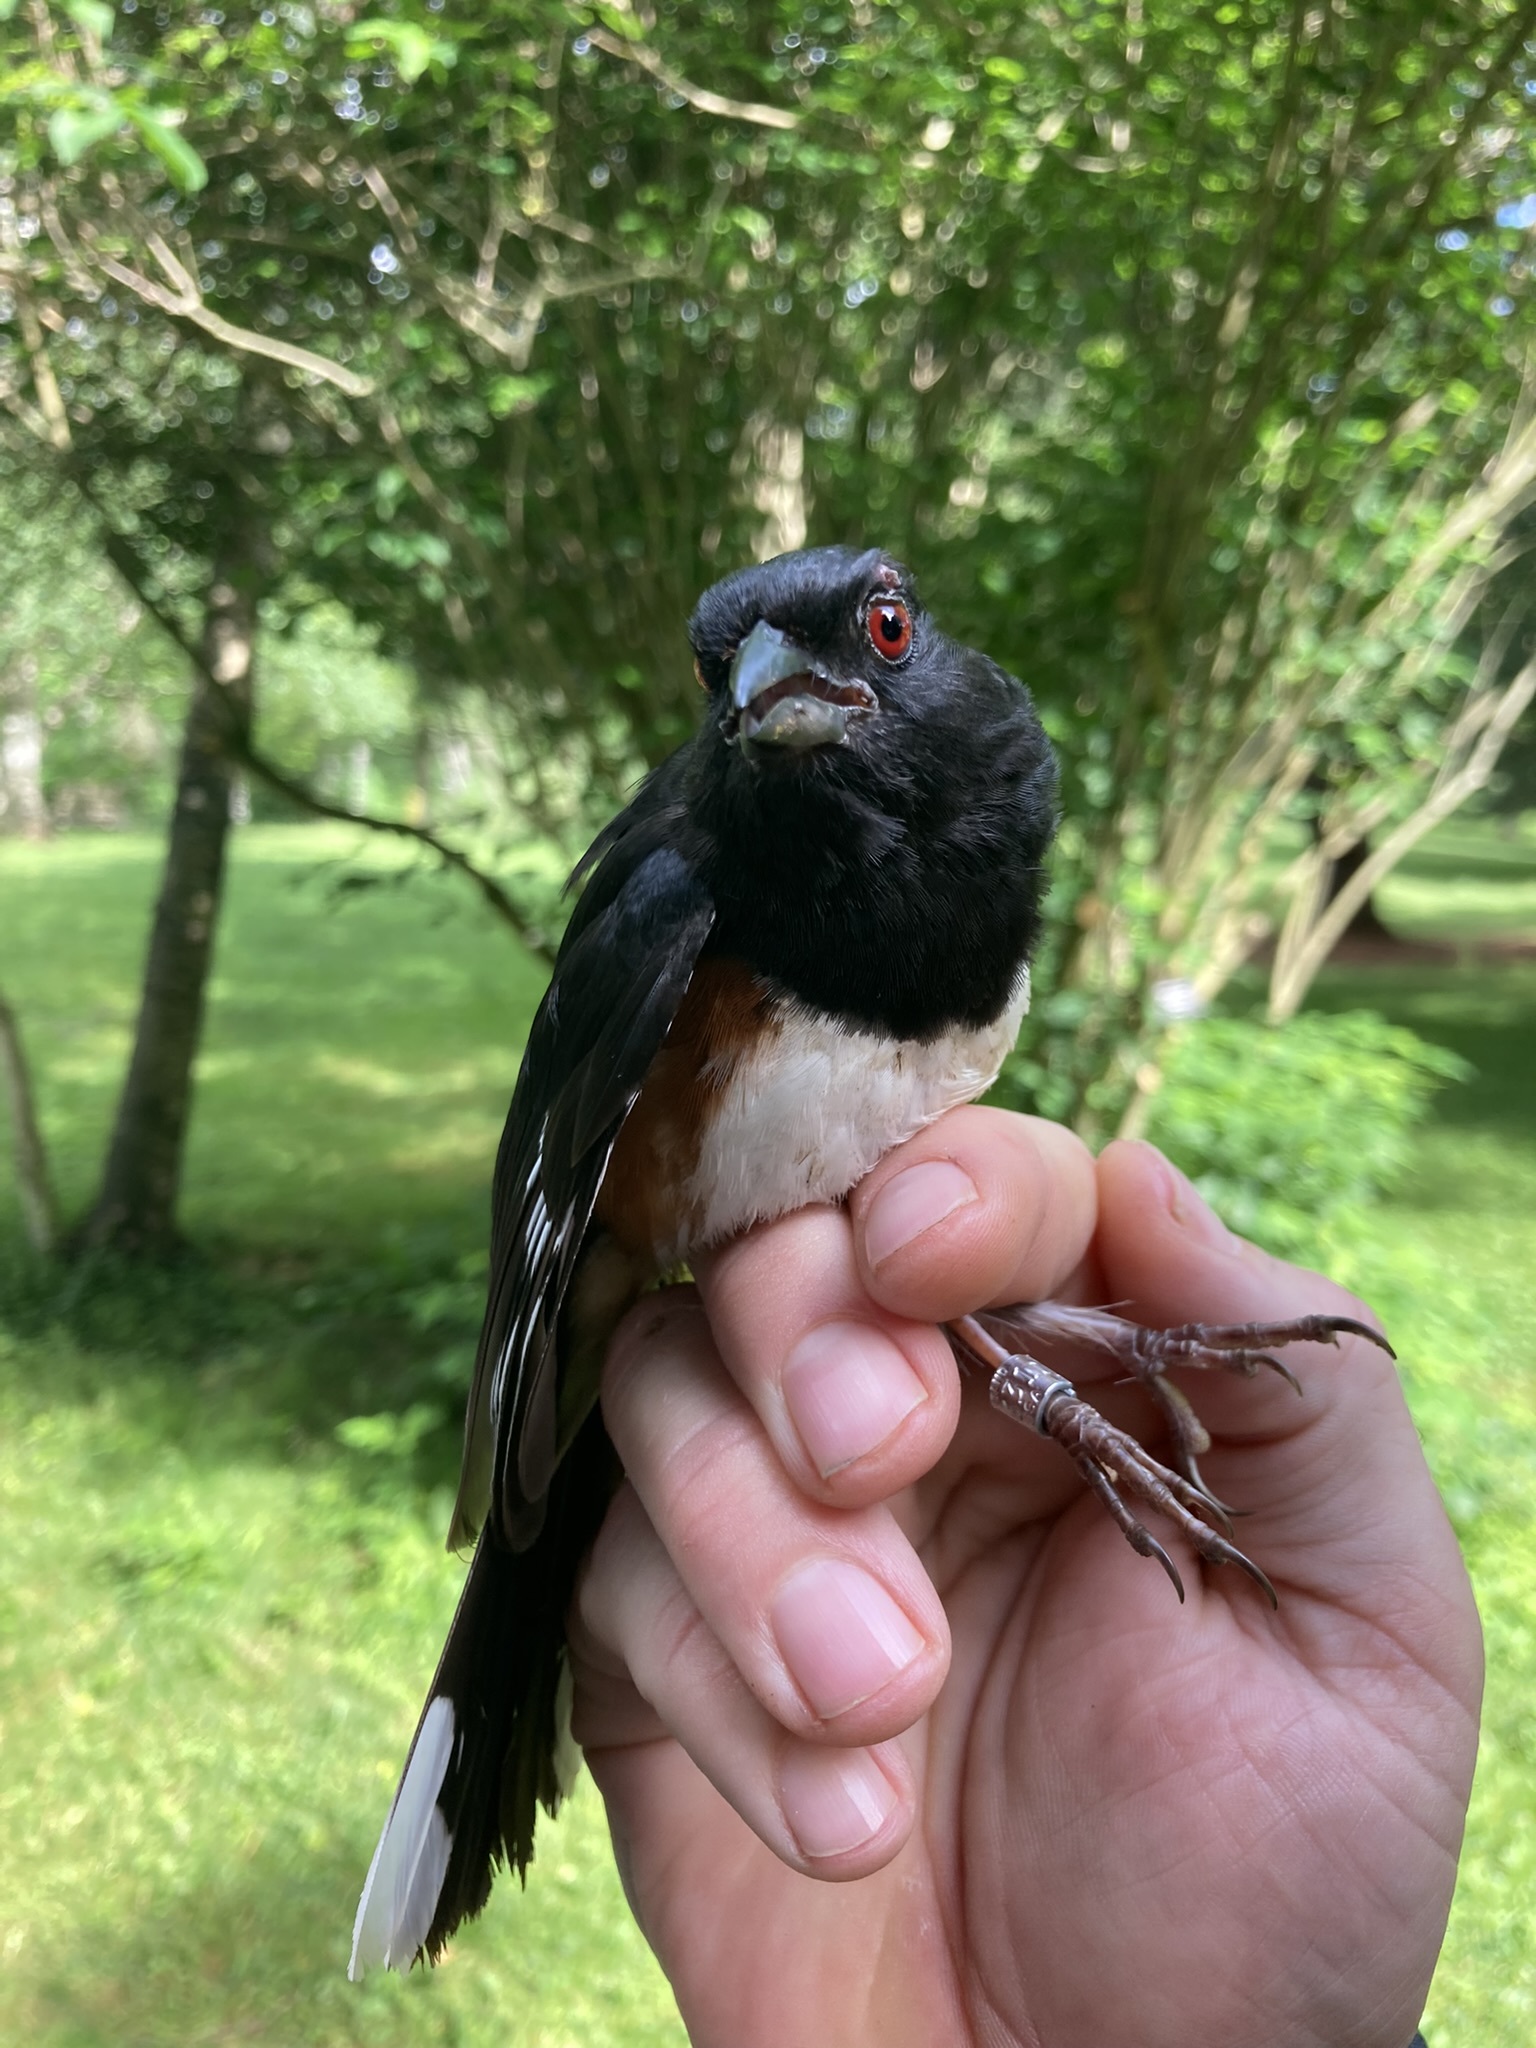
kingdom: Animalia
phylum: Chordata
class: Aves
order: Passeriformes
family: Passerellidae
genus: Pipilo
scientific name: Pipilo erythrophthalmus
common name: Eastern towhee
